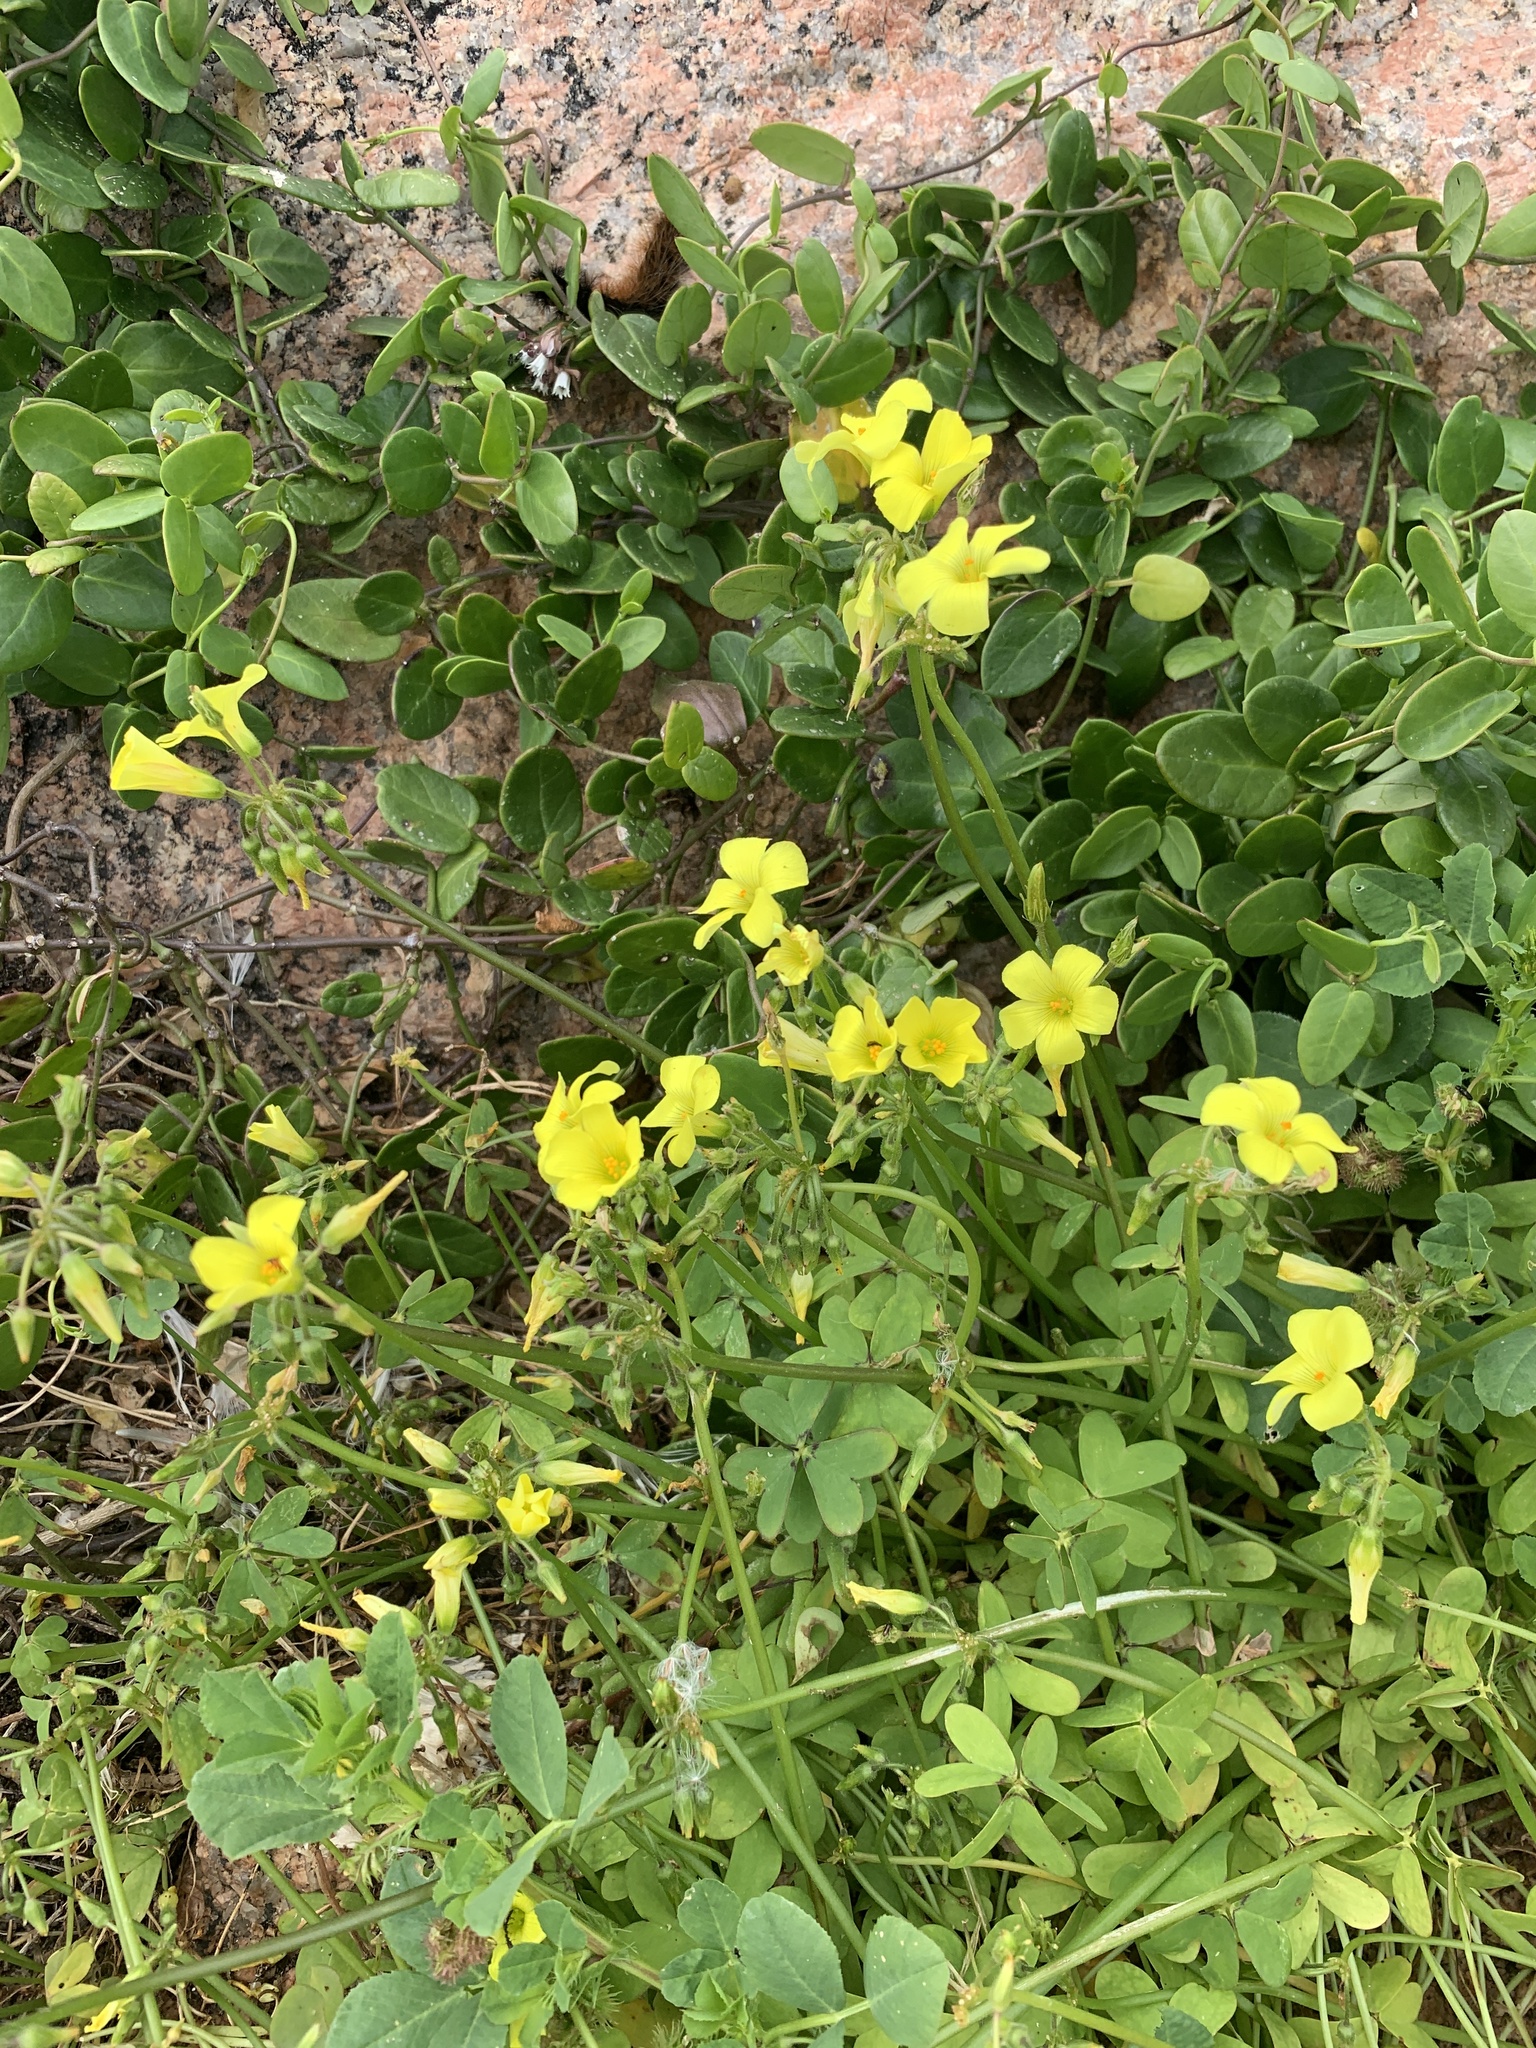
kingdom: Plantae
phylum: Tracheophyta
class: Magnoliopsida
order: Oxalidales
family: Oxalidaceae
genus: Oxalis
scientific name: Oxalis pes-caprae
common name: Bermuda-buttercup
